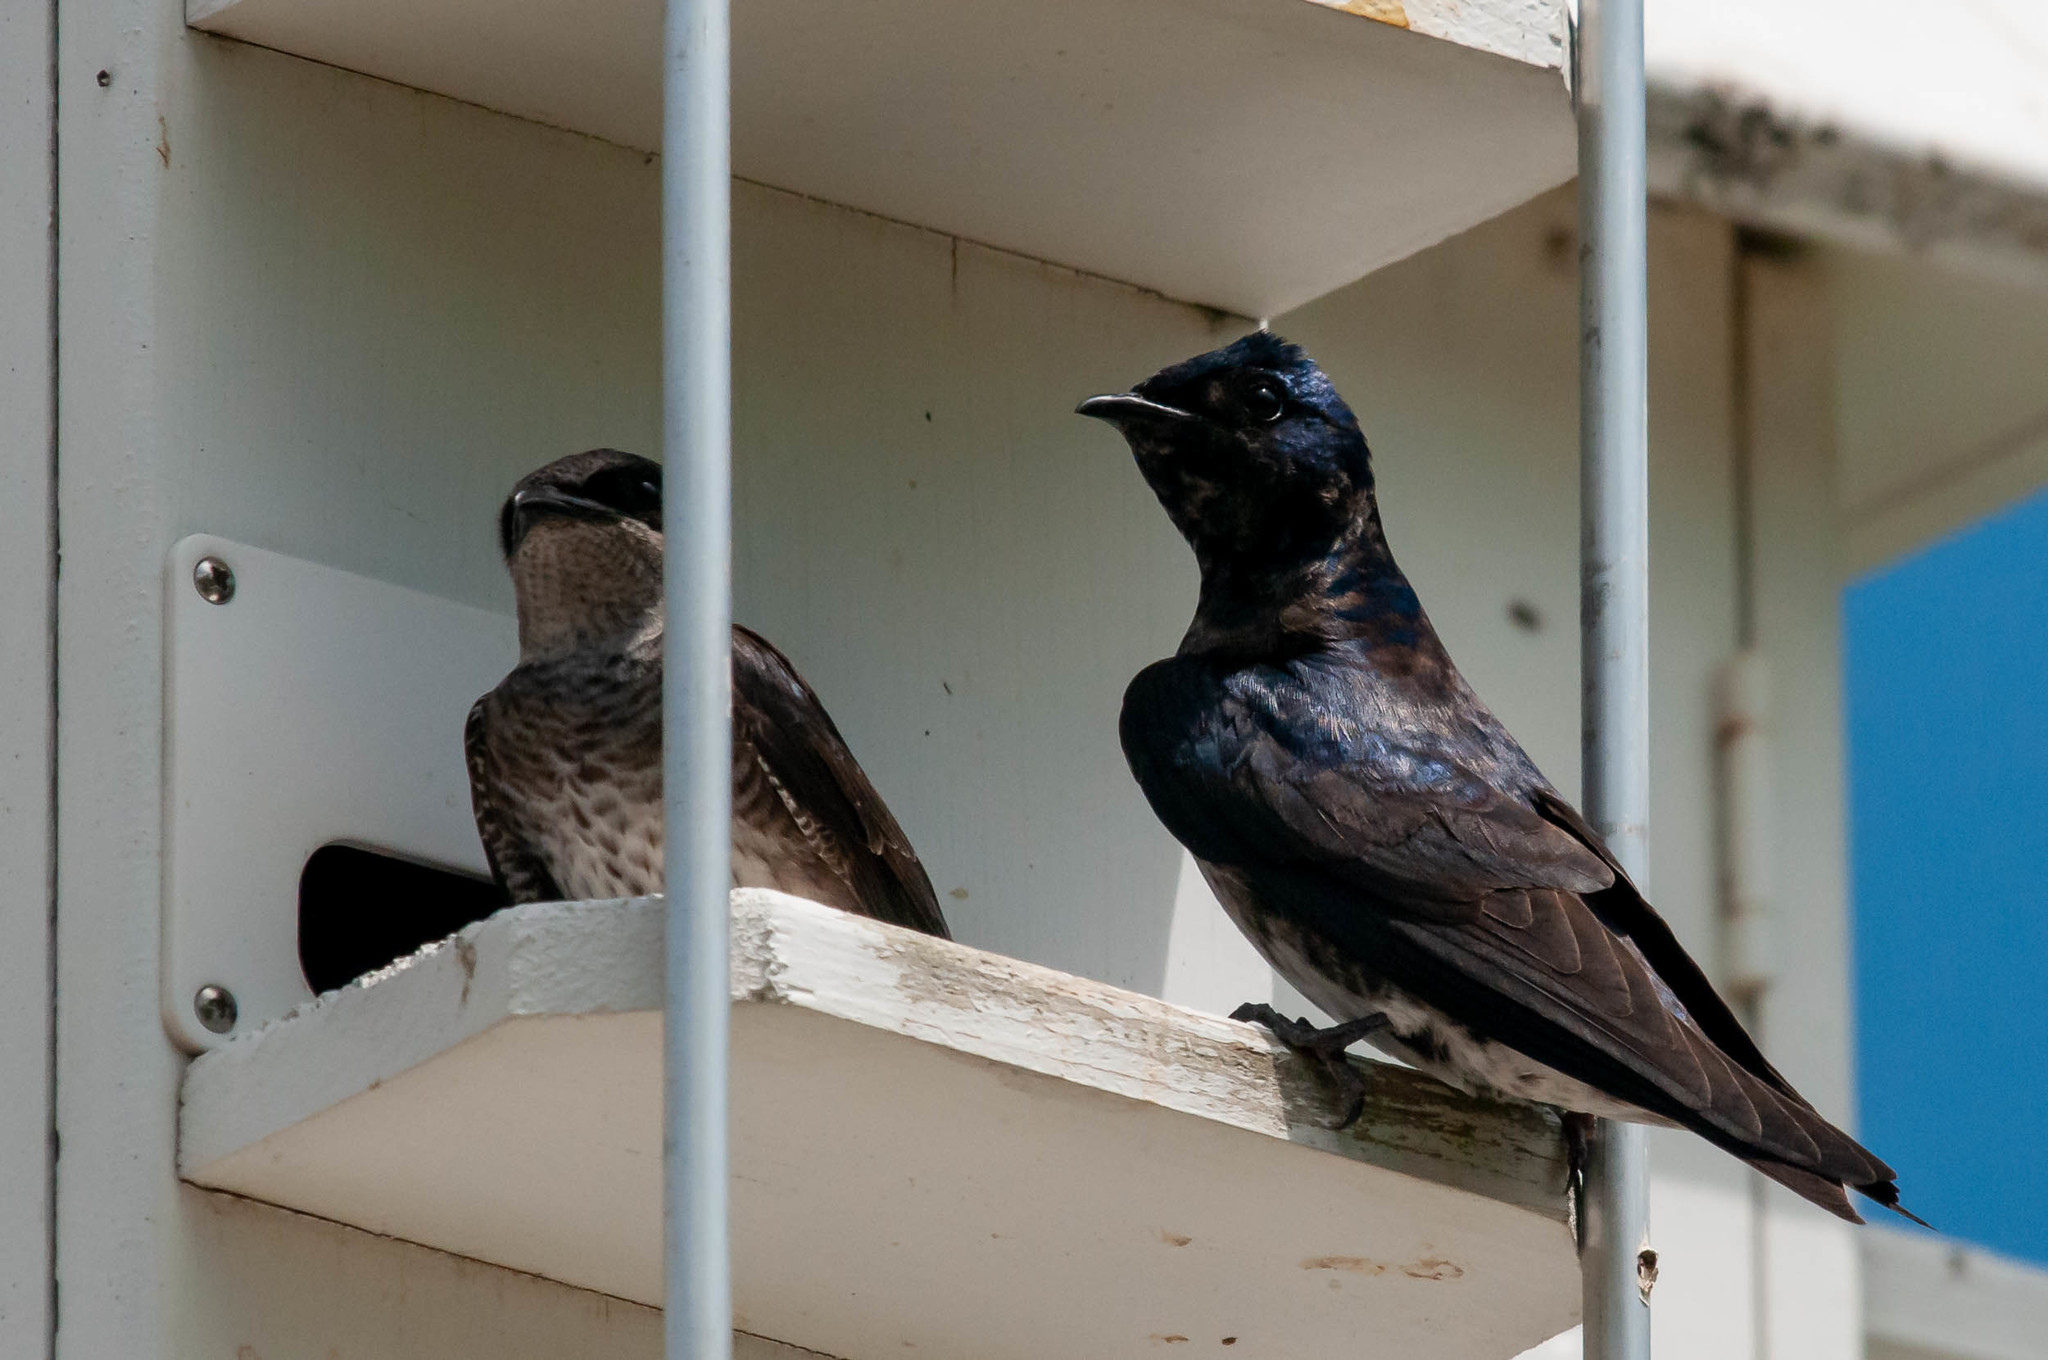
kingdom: Animalia
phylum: Chordata
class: Aves
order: Passeriformes
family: Hirundinidae
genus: Progne
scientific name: Progne subis
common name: Purple martin
